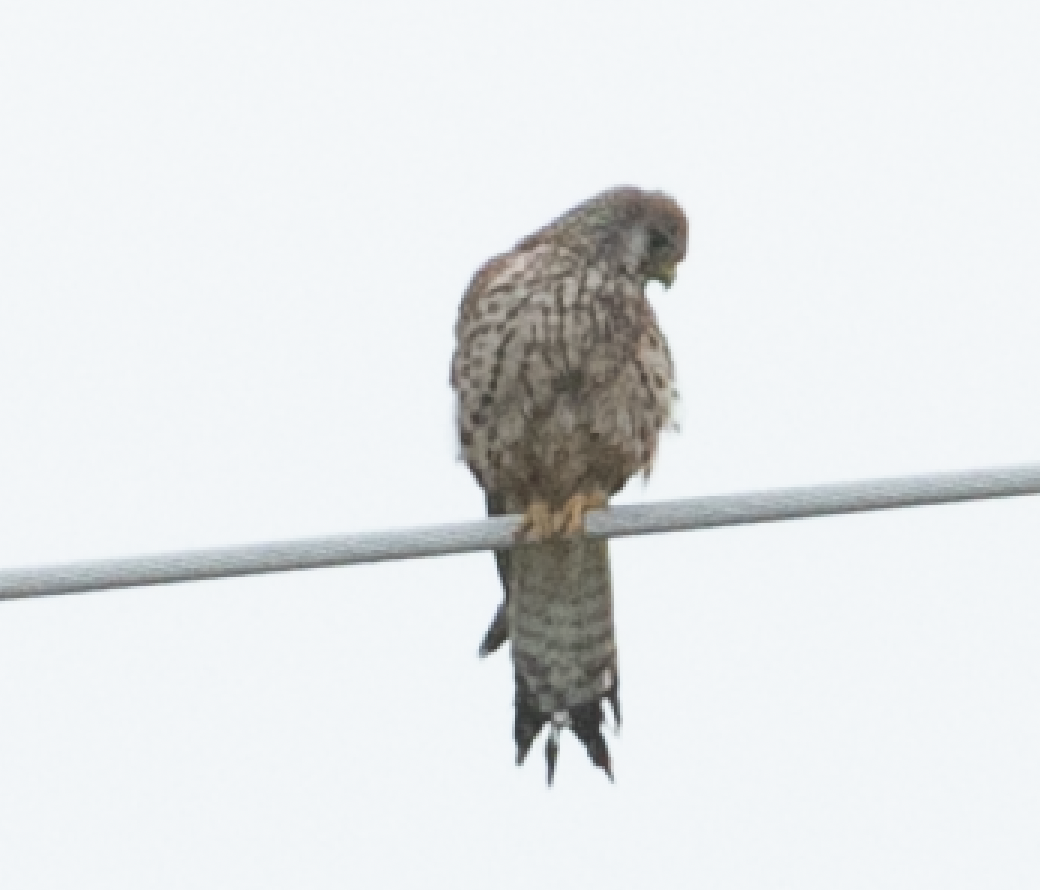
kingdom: Animalia
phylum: Chordata
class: Aves
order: Falconiformes
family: Falconidae
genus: Falco
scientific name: Falco tinnunculus
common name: Common kestrel
